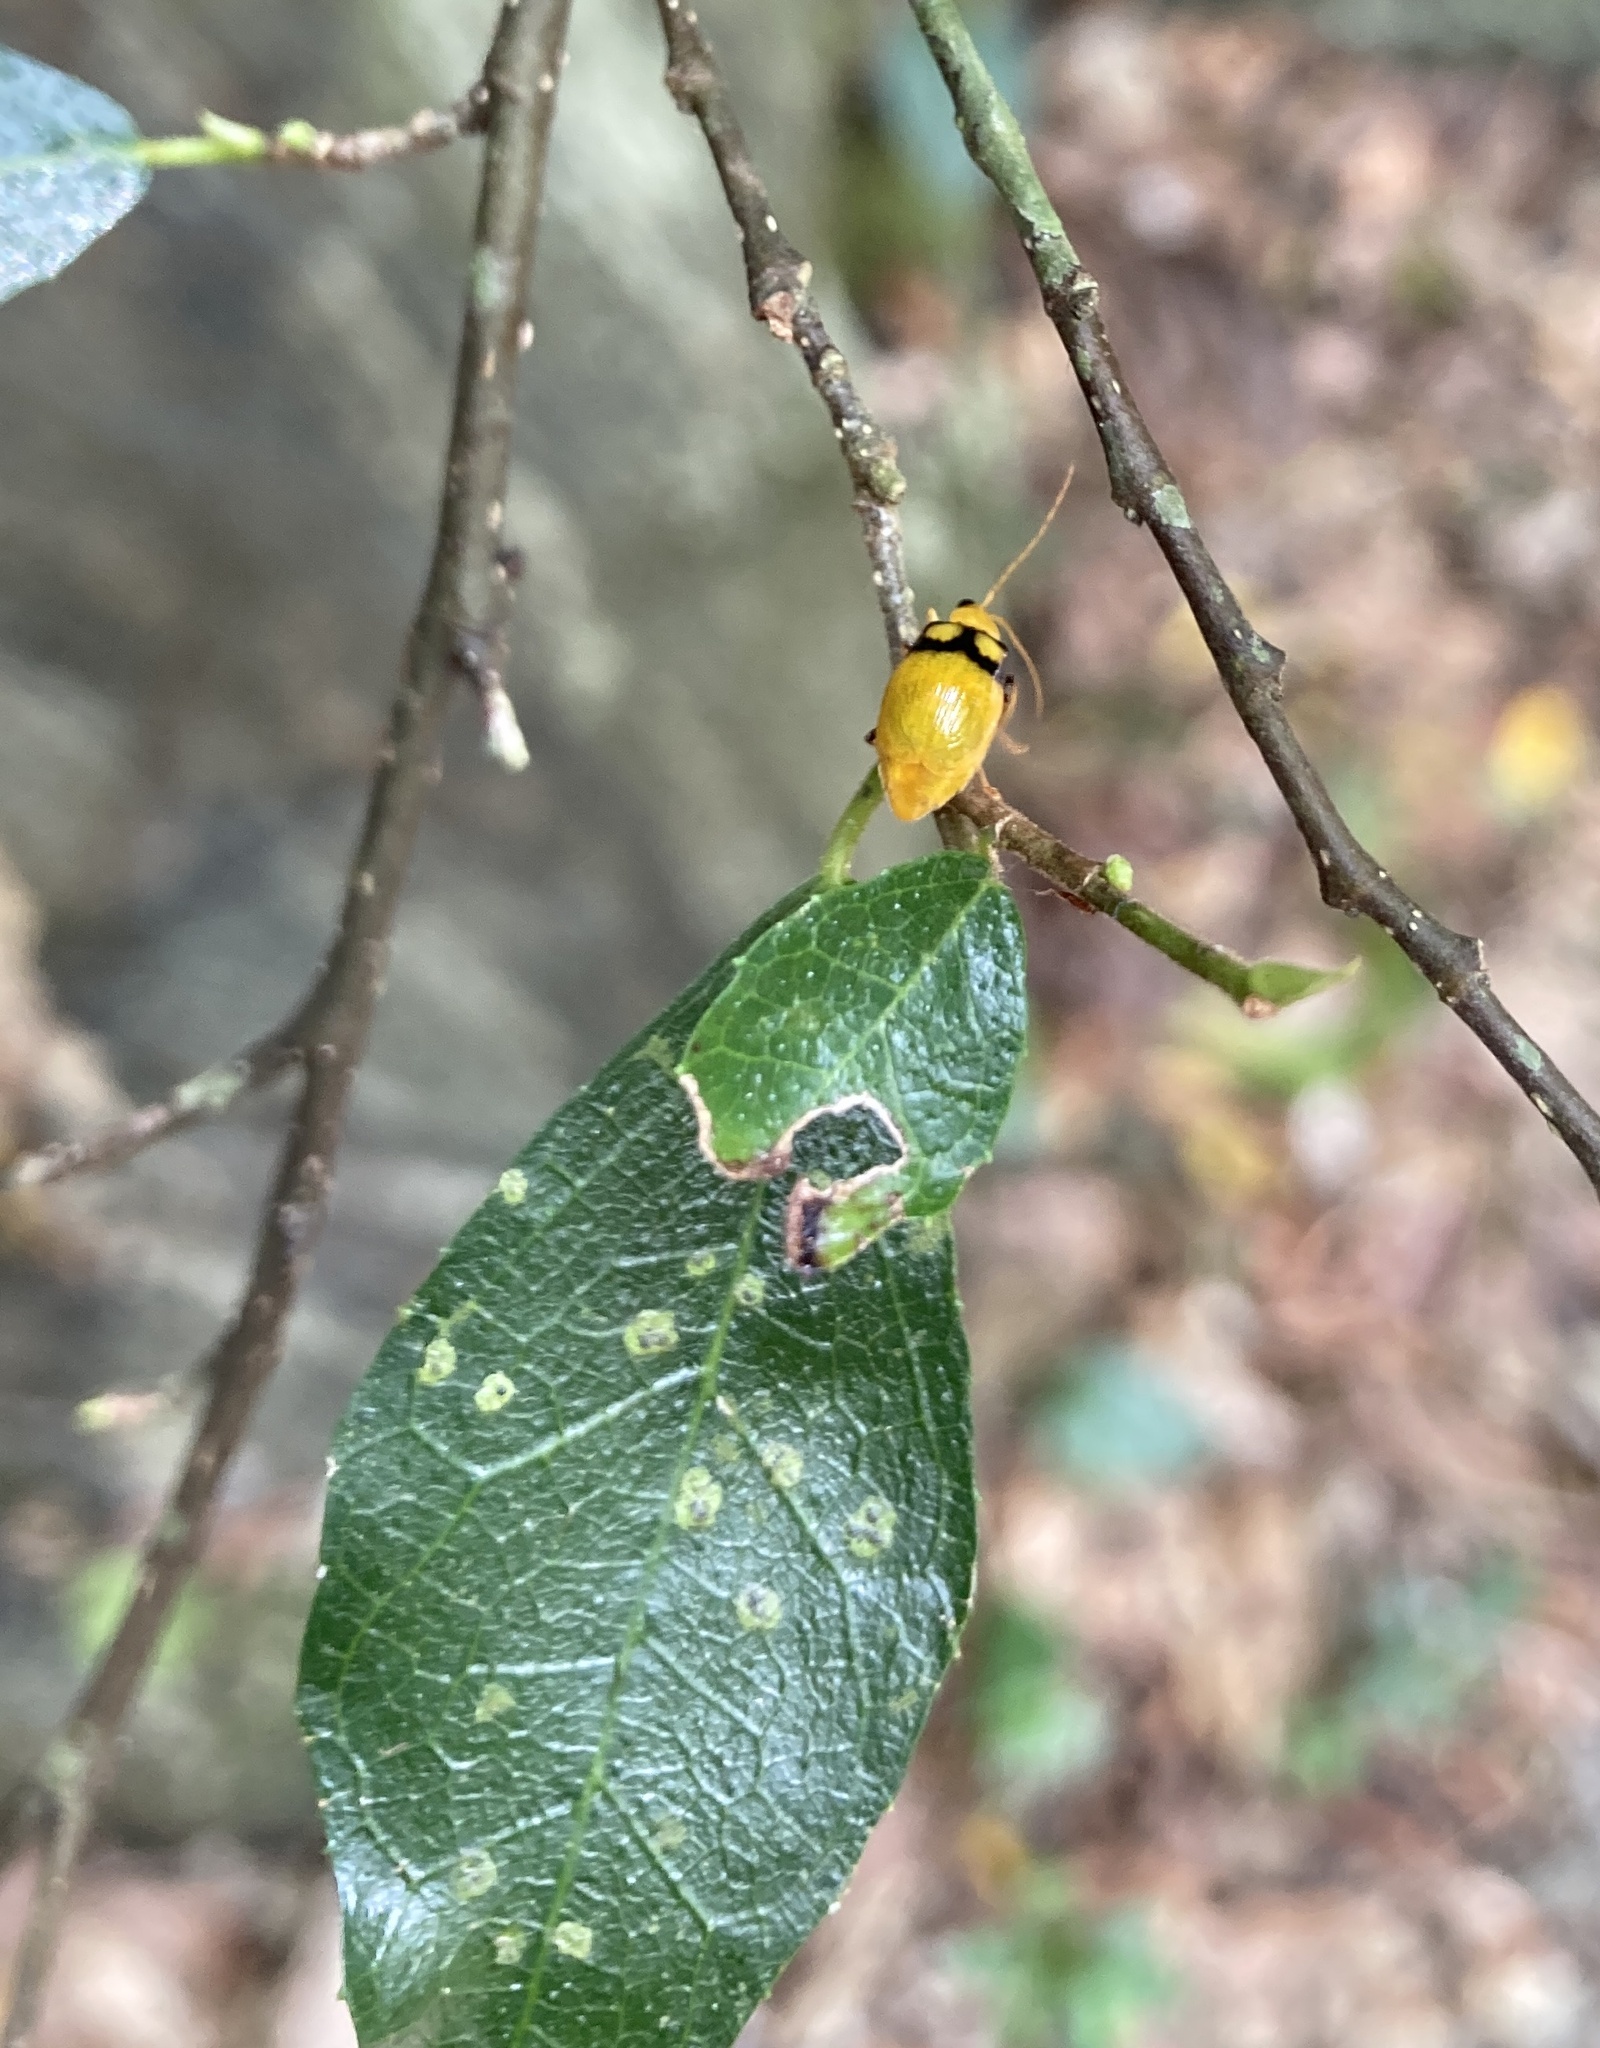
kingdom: Animalia
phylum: Arthropoda
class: Insecta
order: Coleoptera
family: Chrysomelidae
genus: Monolepta
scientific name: Monolepta
